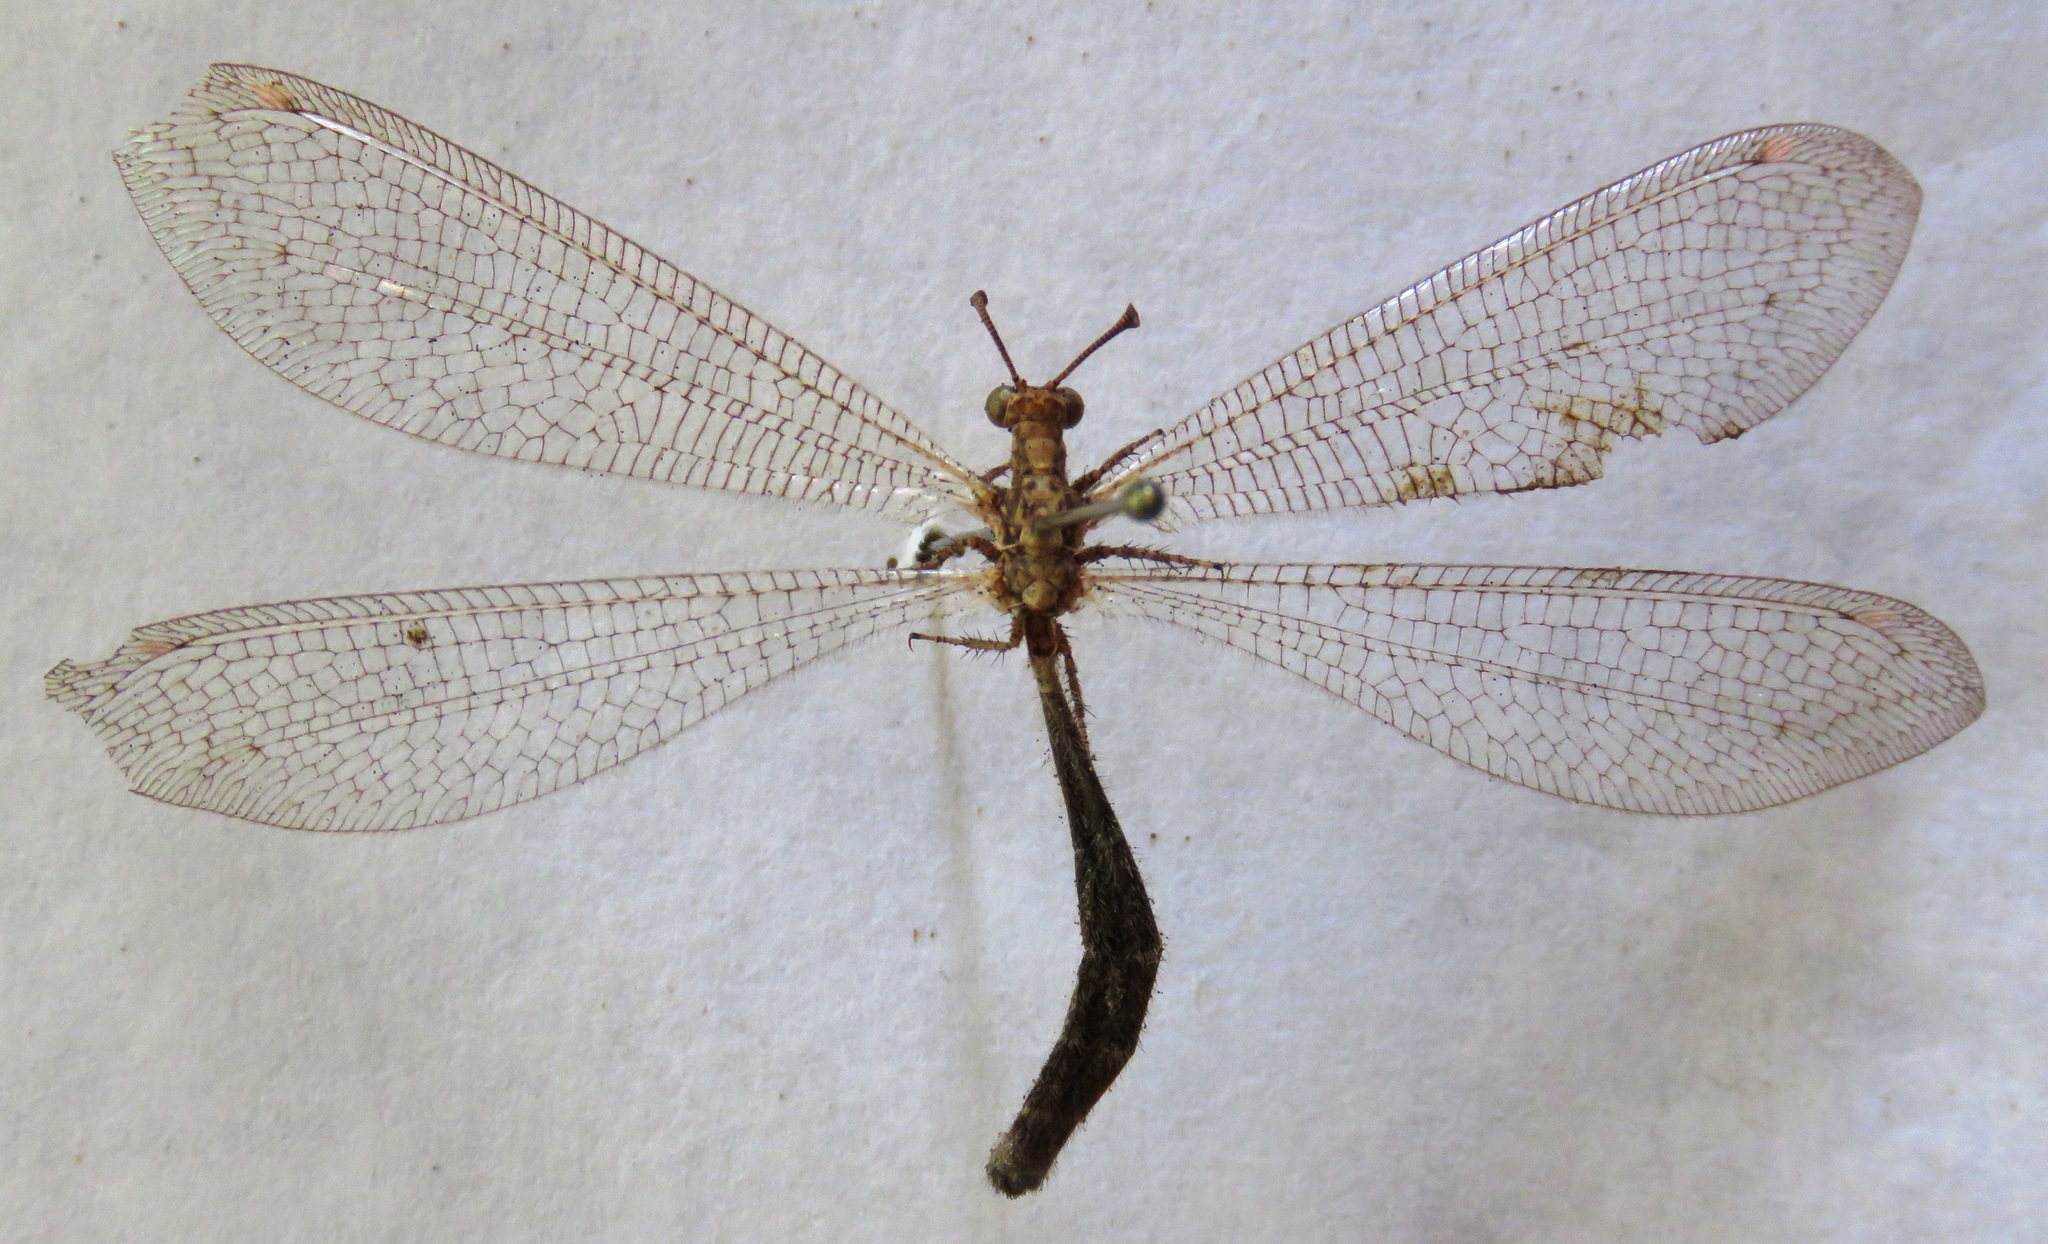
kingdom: Animalia
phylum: Arthropoda
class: Insecta
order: Neuroptera
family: Myrmeleontidae
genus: Dejuna
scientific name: Dejuna fenestrata
